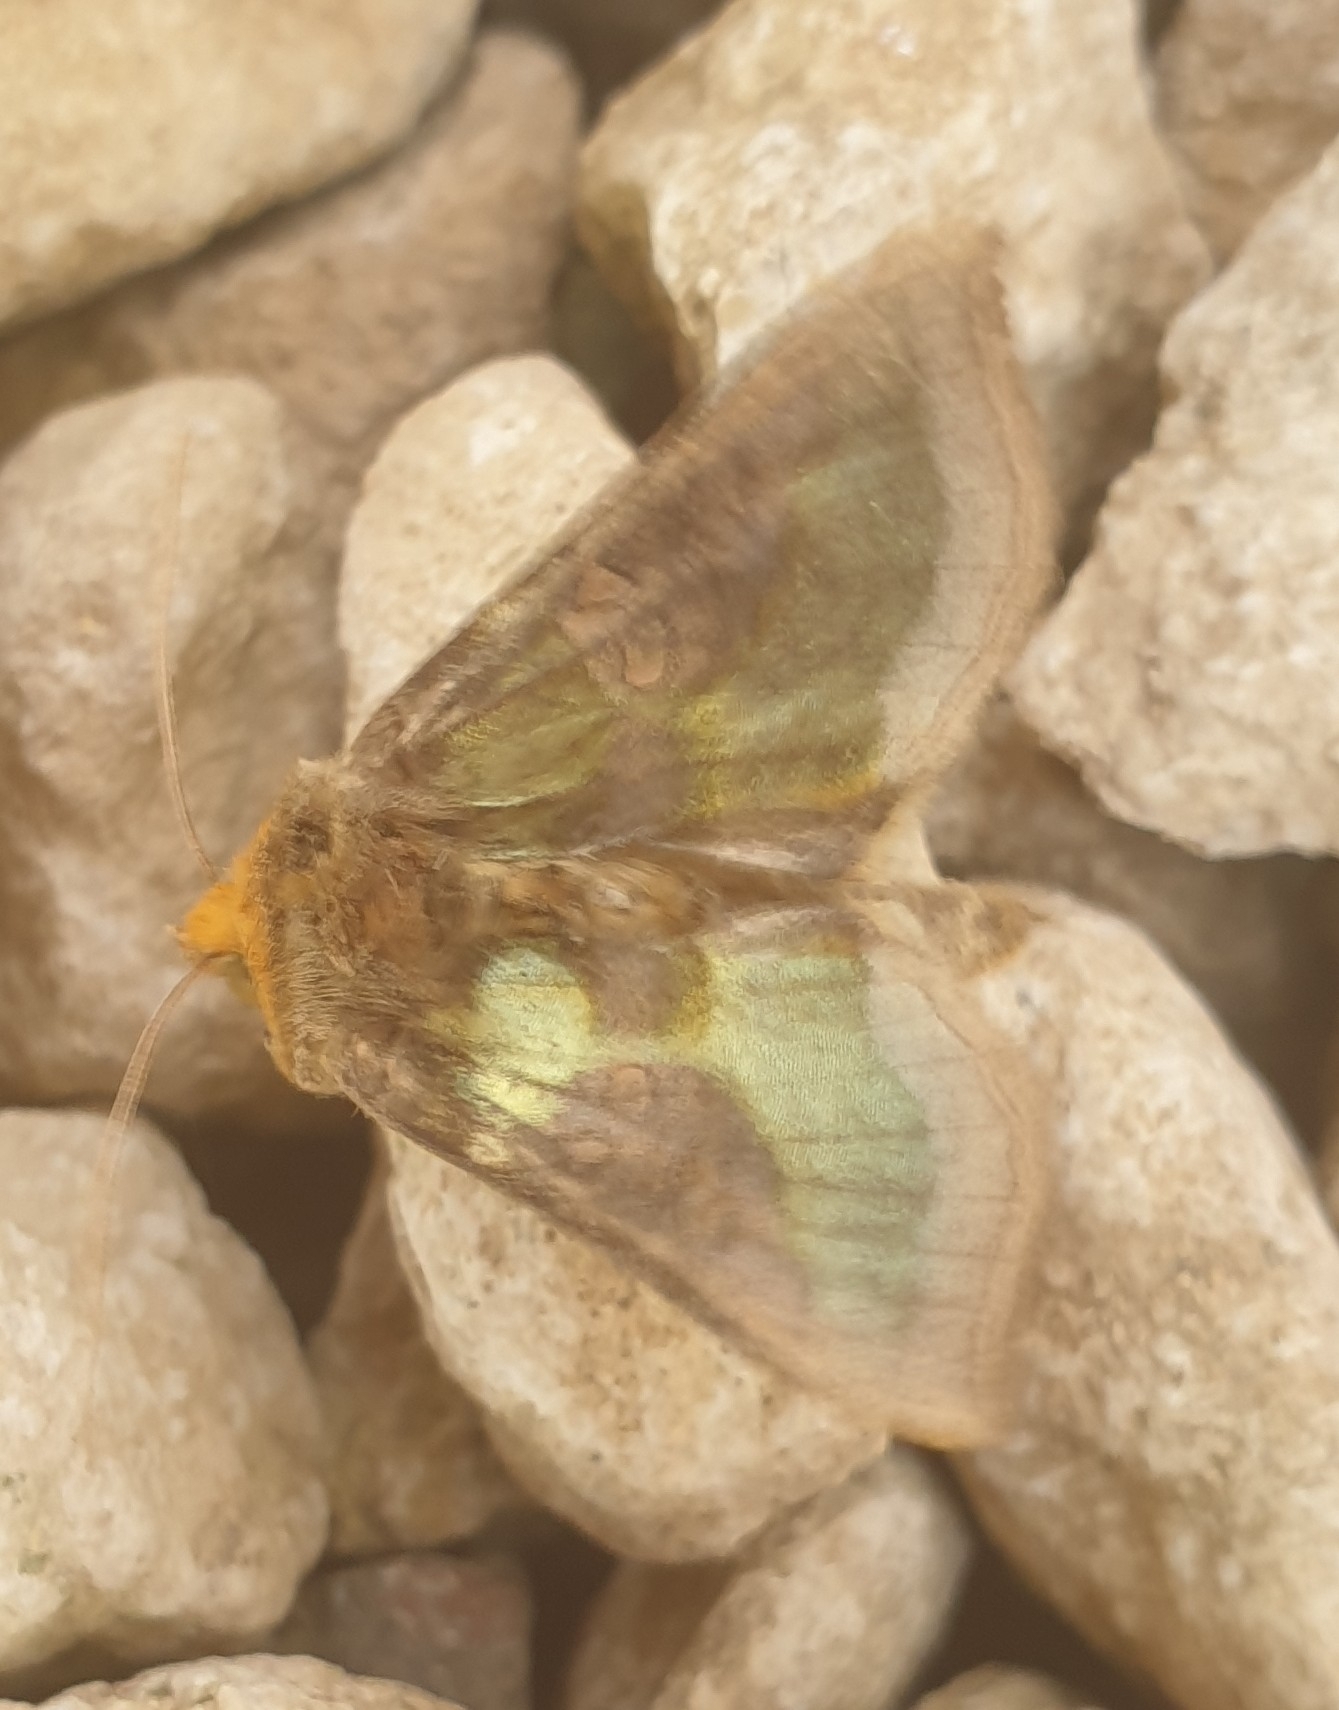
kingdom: Animalia
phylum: Arthropoda
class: Insecta
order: Lepidoptera
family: Noctuidae
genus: Diachrysia
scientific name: Diachrysia chrysitis
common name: Burnished brass
